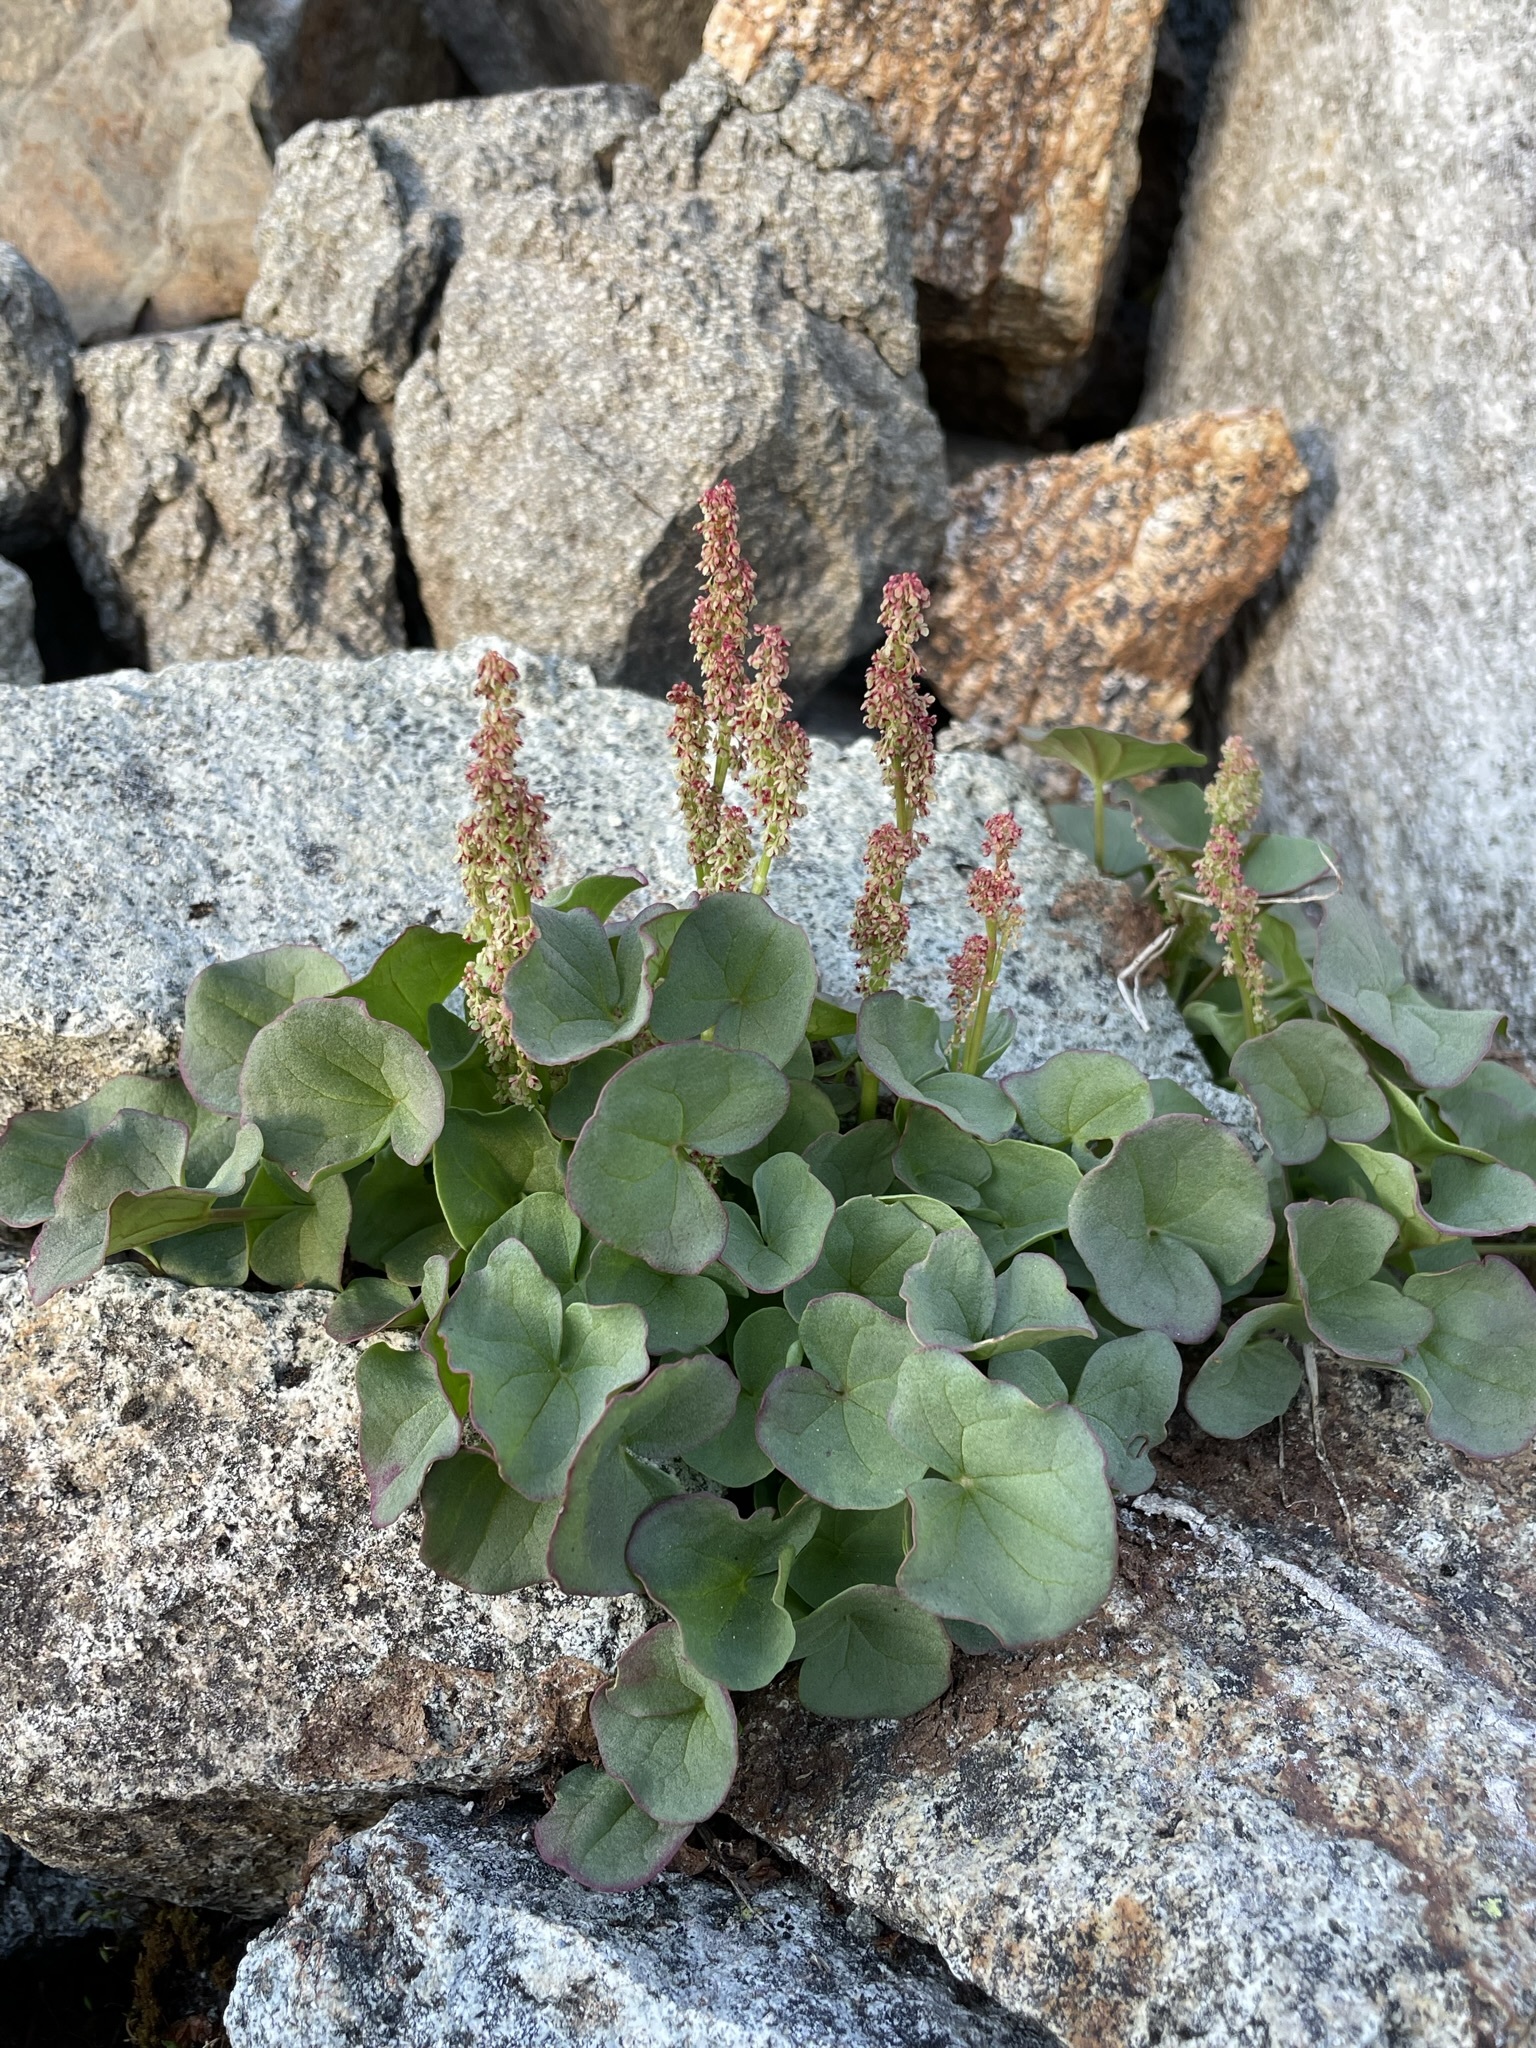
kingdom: Plantae
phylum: Tracheophyta
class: Magnoliopsida
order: Caryophyllales
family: Polygonaceae
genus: Oxyria
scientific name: Oxyria digyna
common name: Alpine mountain-sorrel
